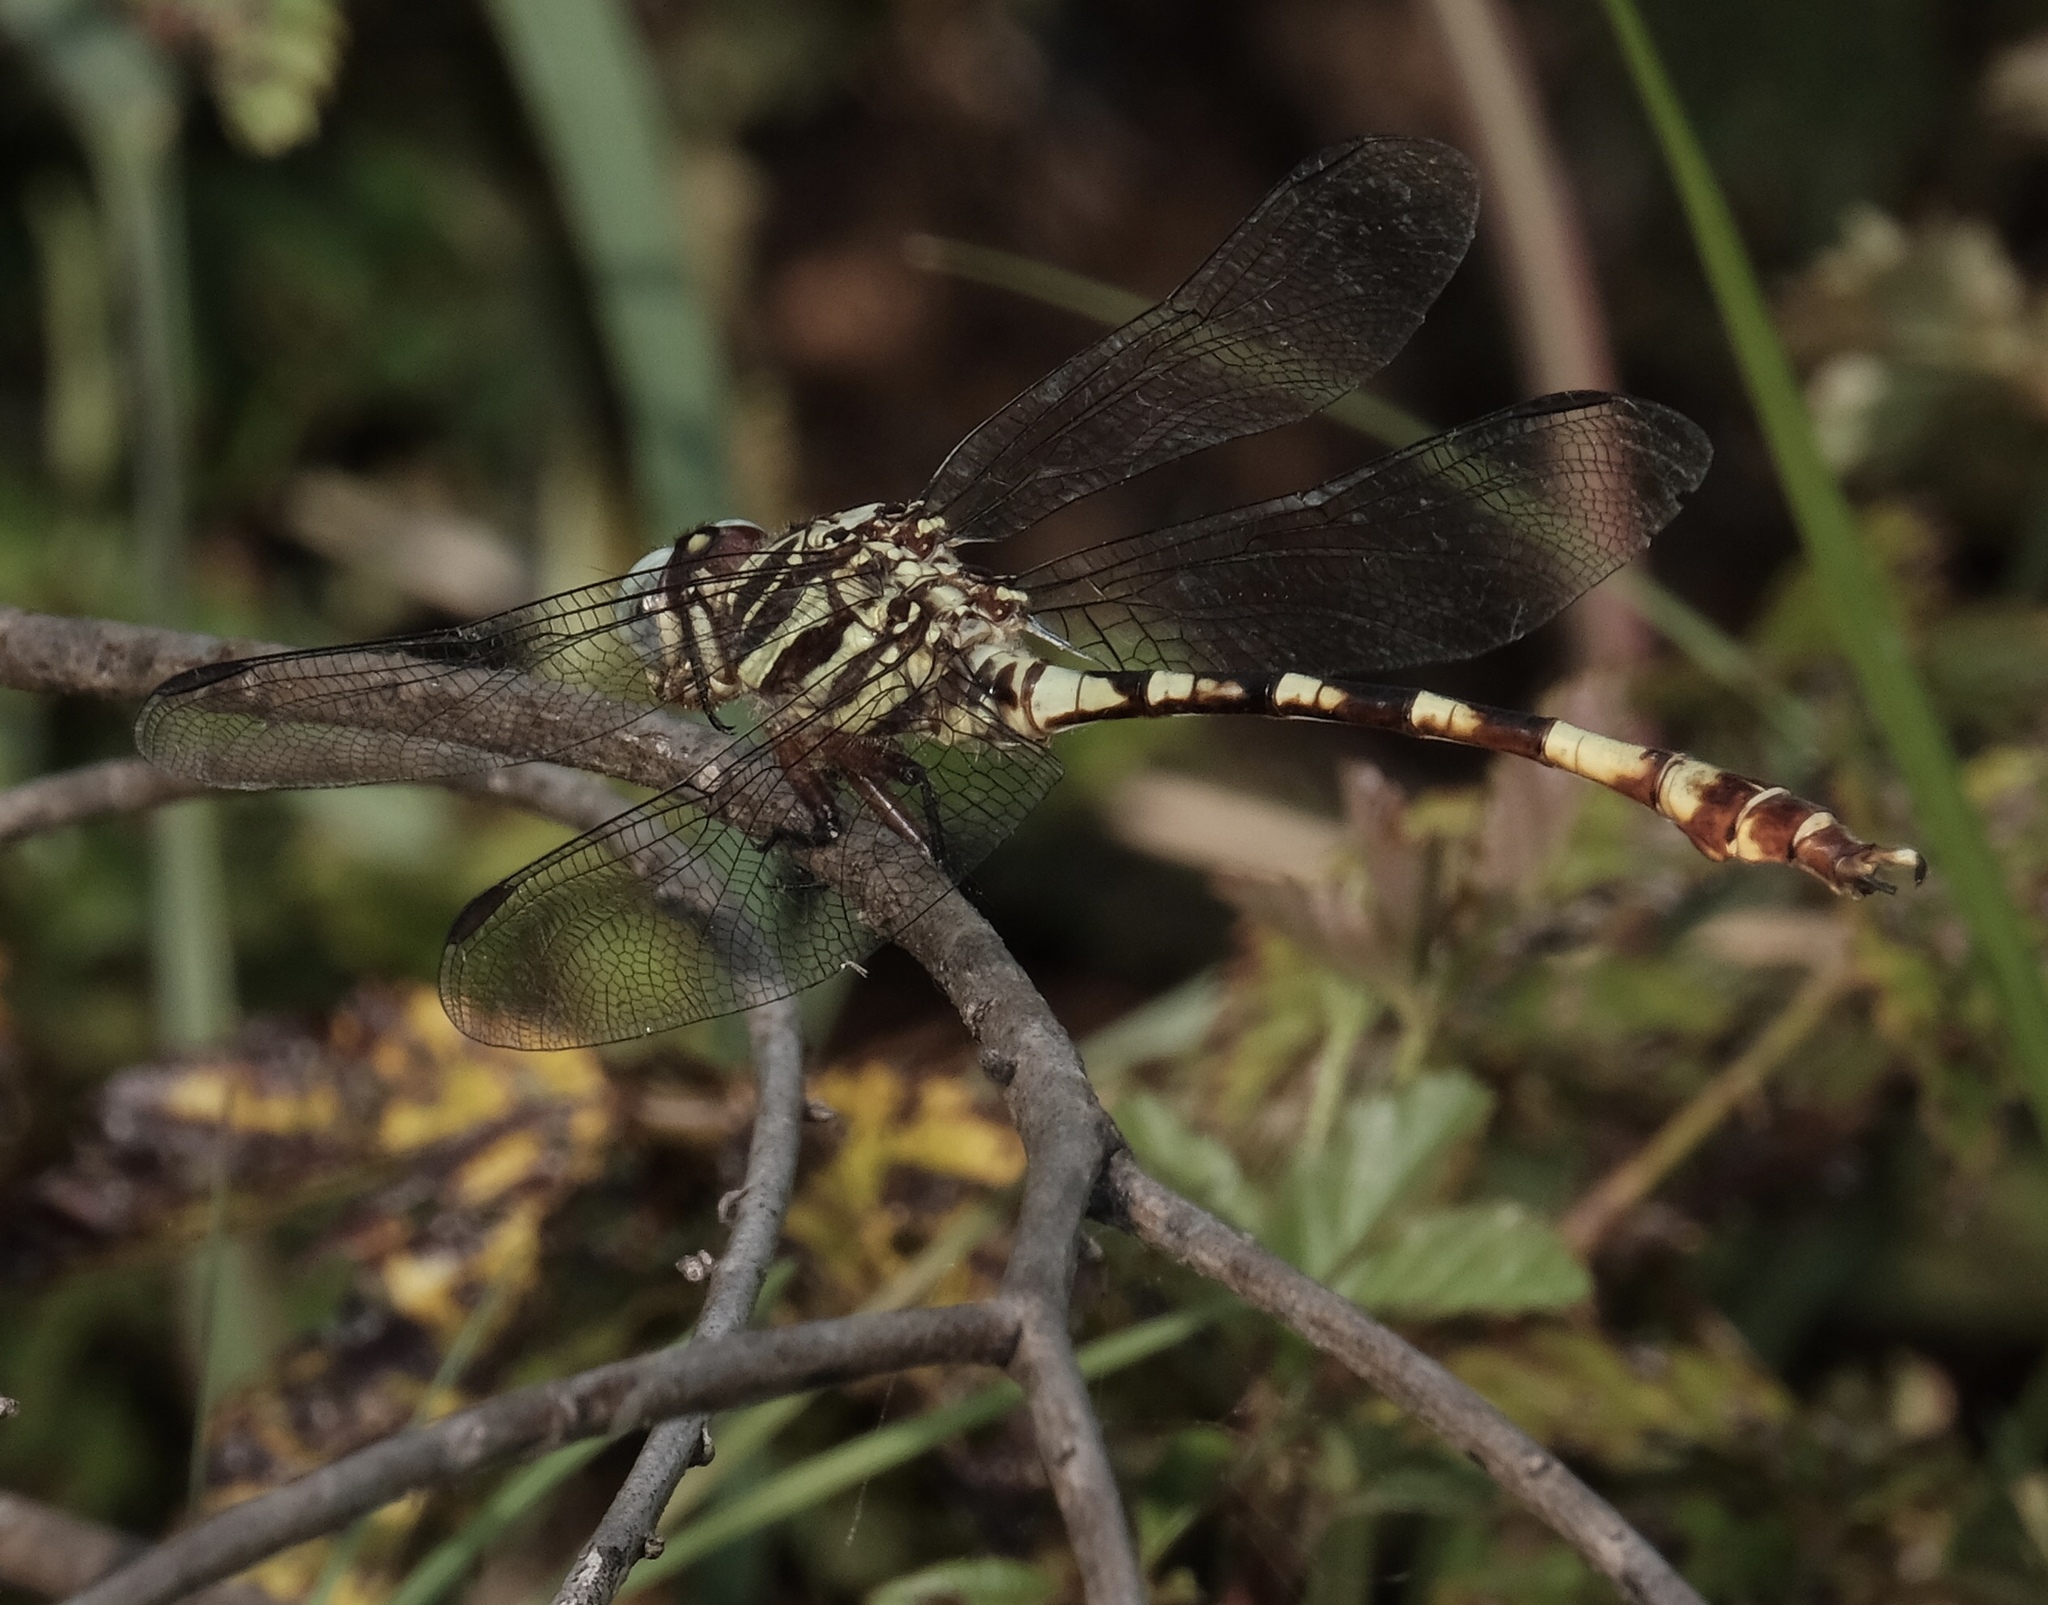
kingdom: Animalia
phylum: Arthropoda
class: Insecta
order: Odonata
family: Gomphidae
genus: Aphylla
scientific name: Aphylla angustifolia
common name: Broad-striped forceptail
